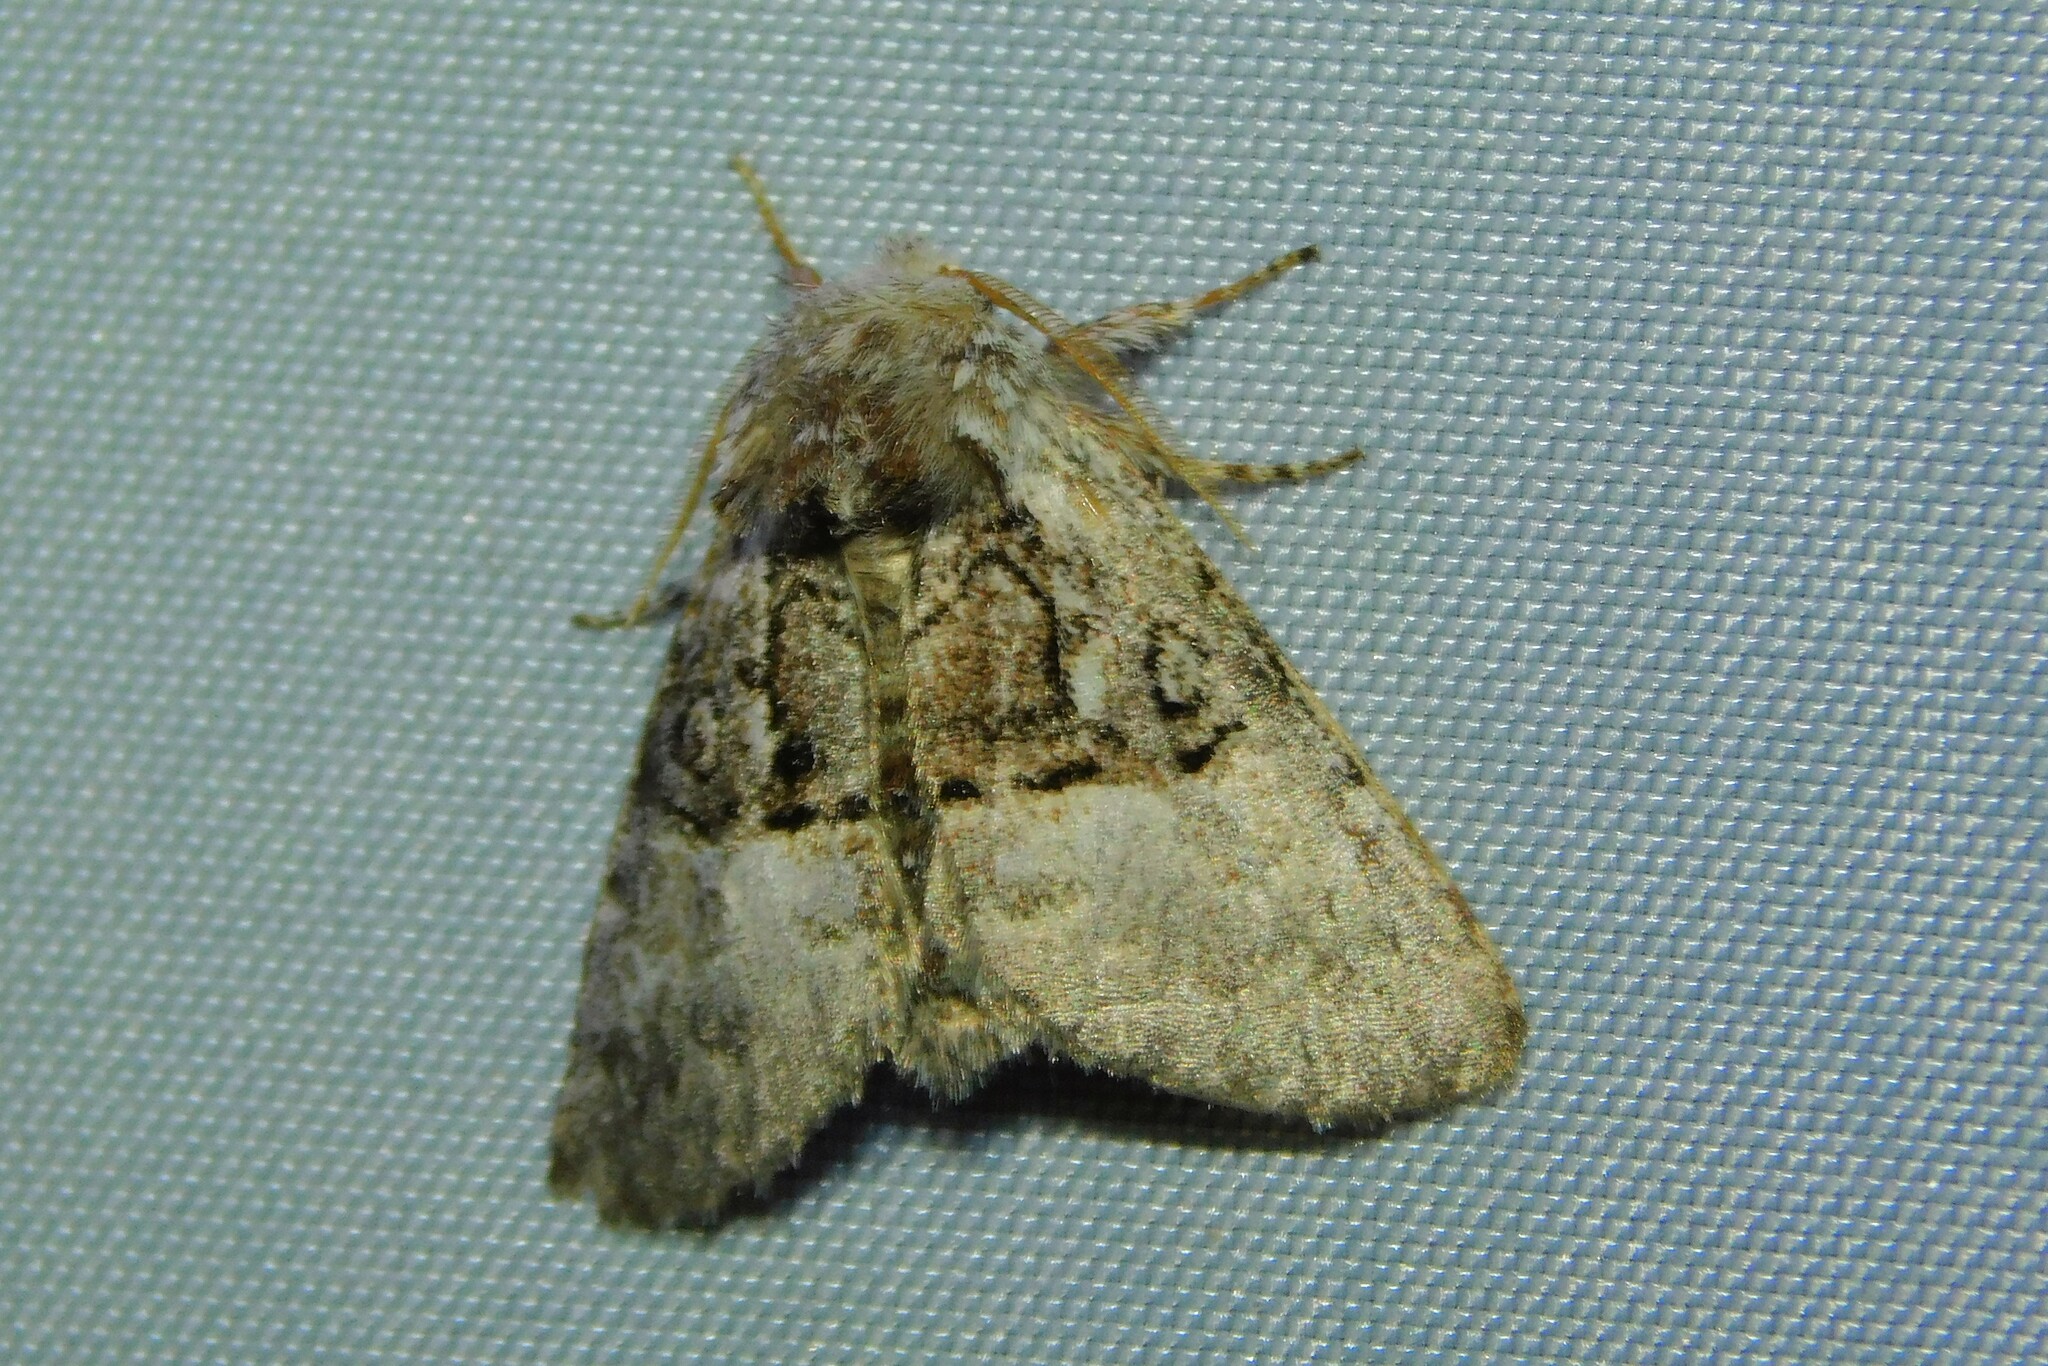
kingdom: Animalia
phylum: Arthropoda
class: Insecta
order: Lepidoptera
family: Noctuidae
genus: Colocasia
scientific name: Colocasia coryli
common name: Nut-tree tussock
